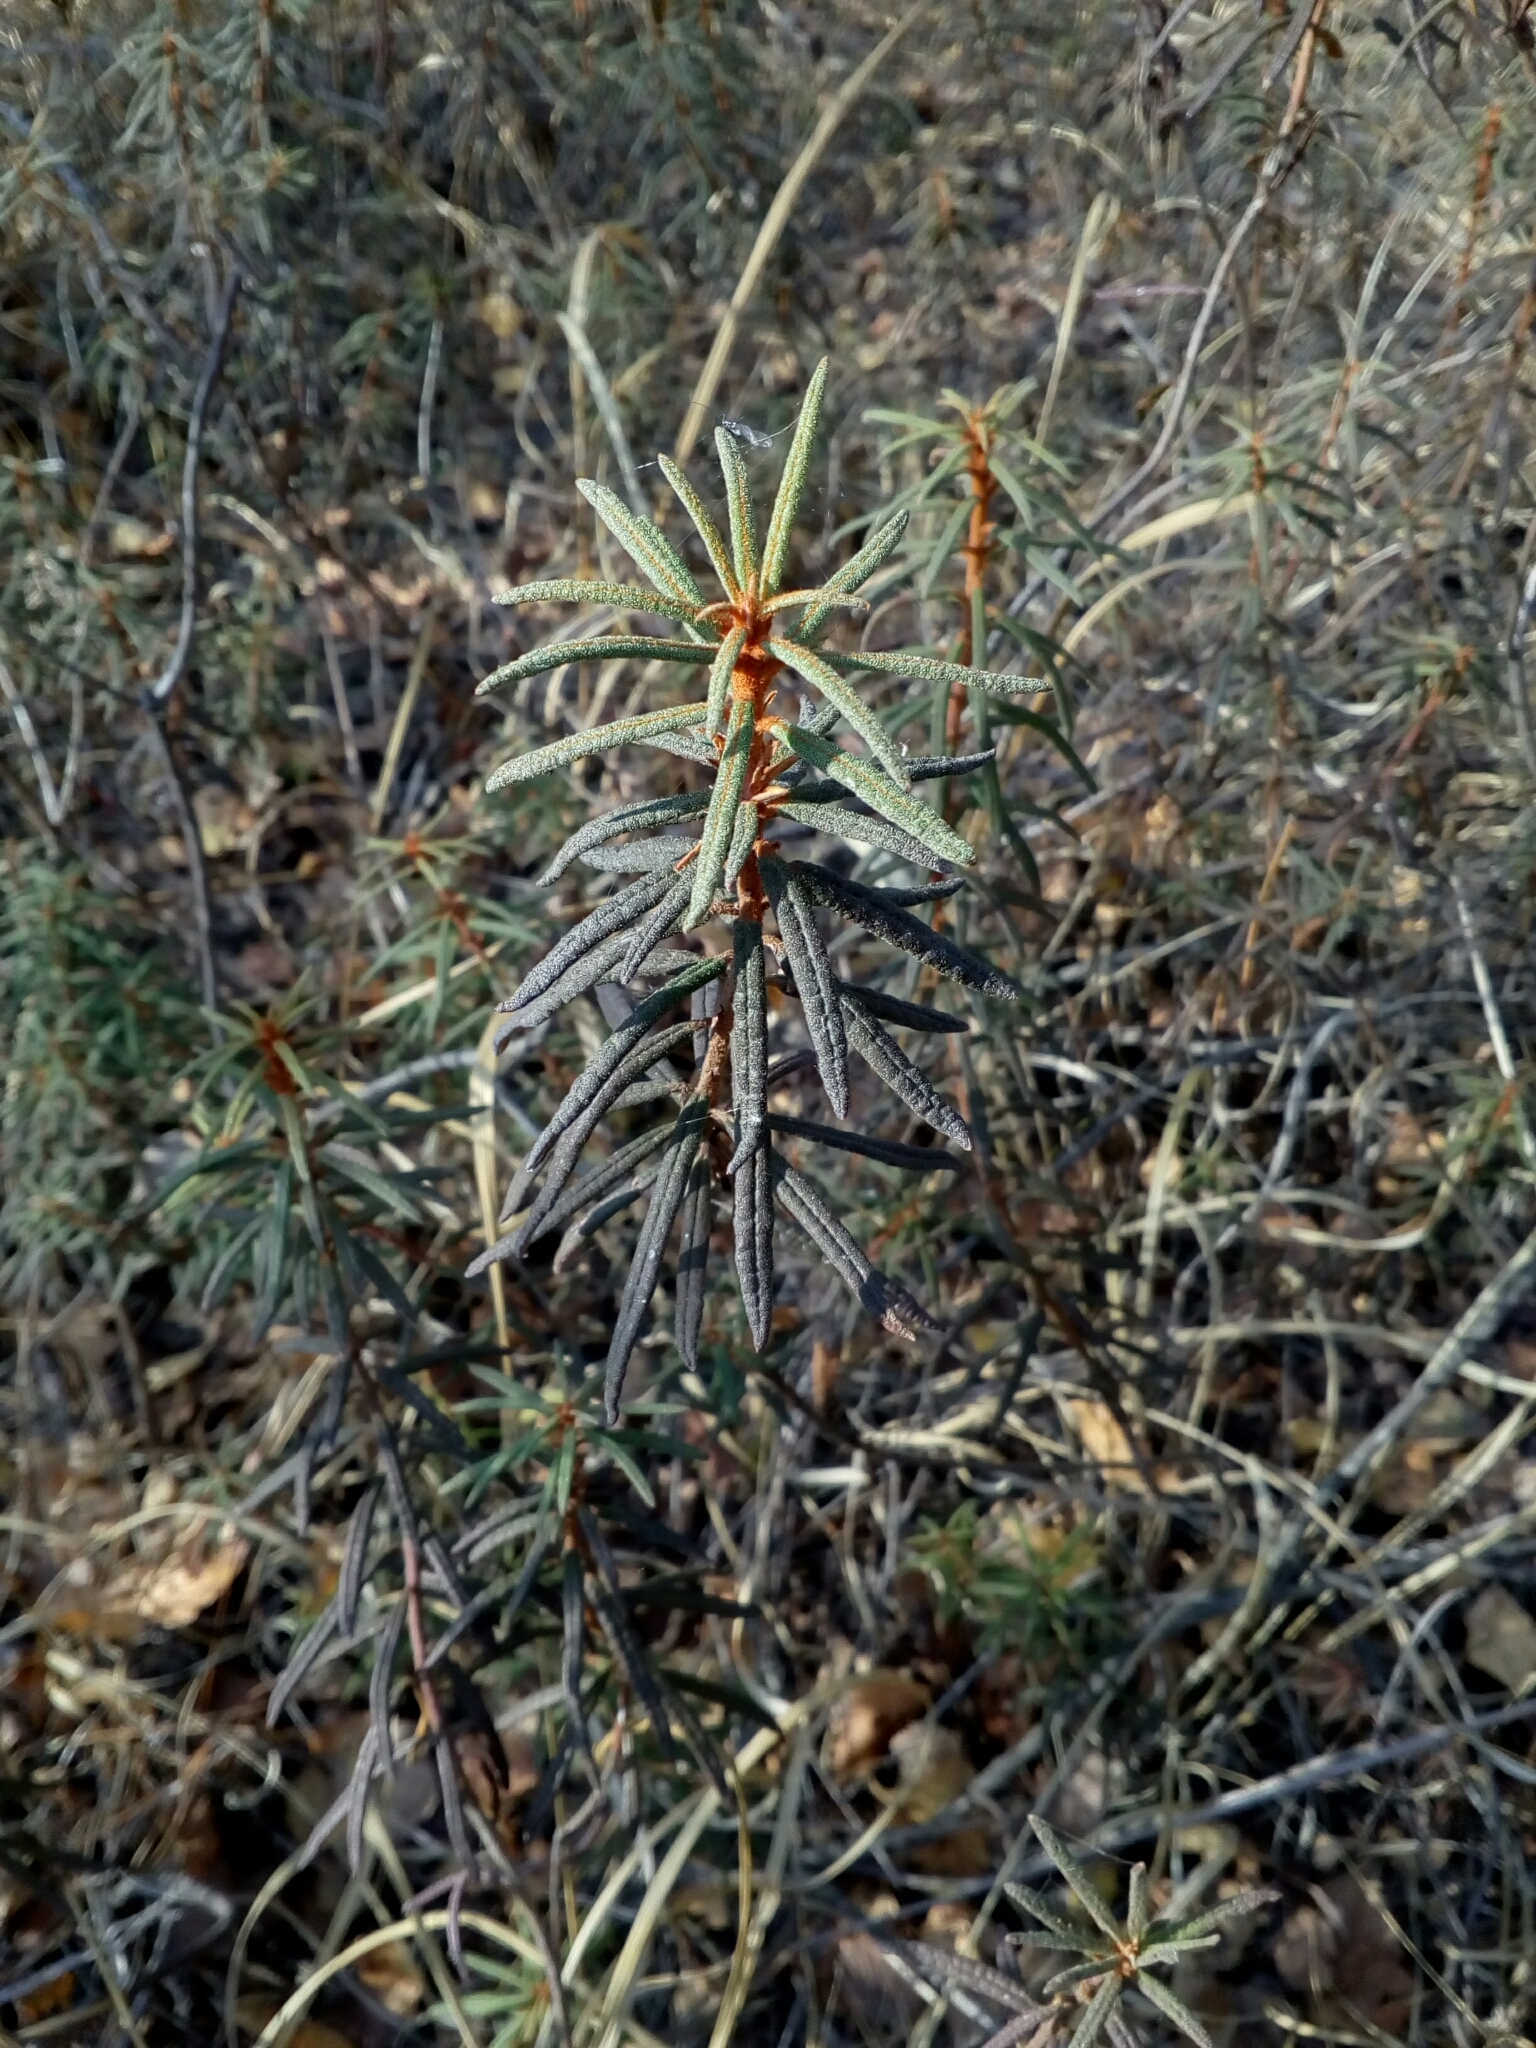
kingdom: Plantae
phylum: Tracheophyta
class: Magnoliopsida
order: Ericales
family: Ericaceae
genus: Rhododendron
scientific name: Rhododendron tomentosum
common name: Marsh labrador tea
